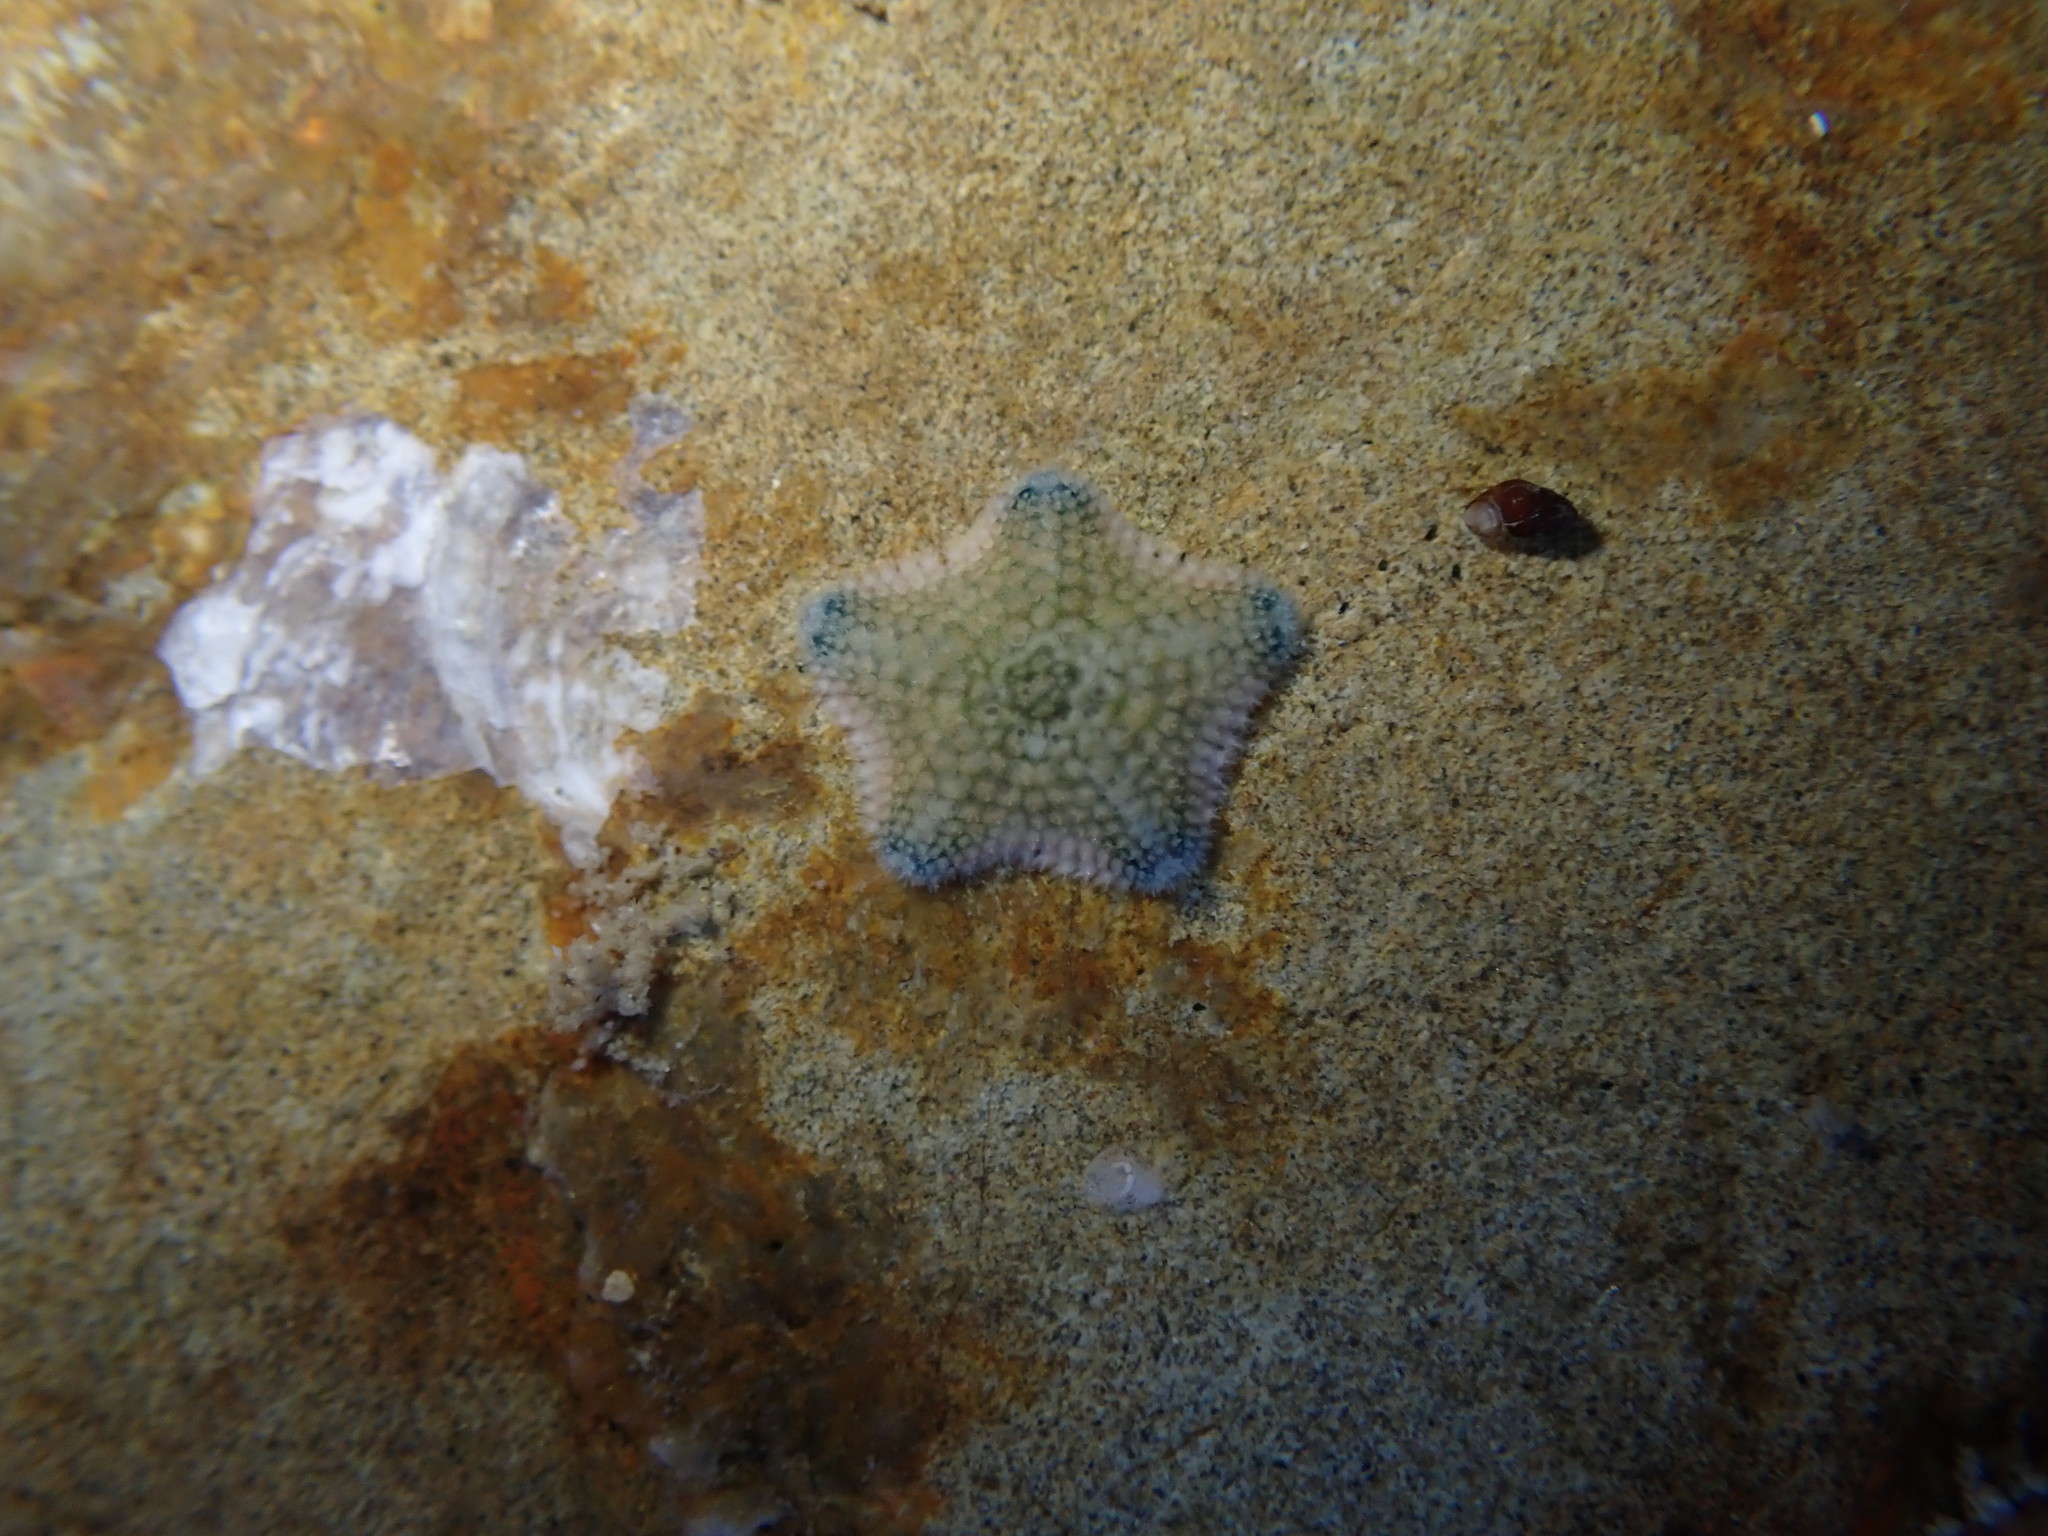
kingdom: Animalia
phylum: Echinodermata
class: Asteroidea
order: Valvatida
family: Asterinidae
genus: Patiriella
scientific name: Patiriella regularis
